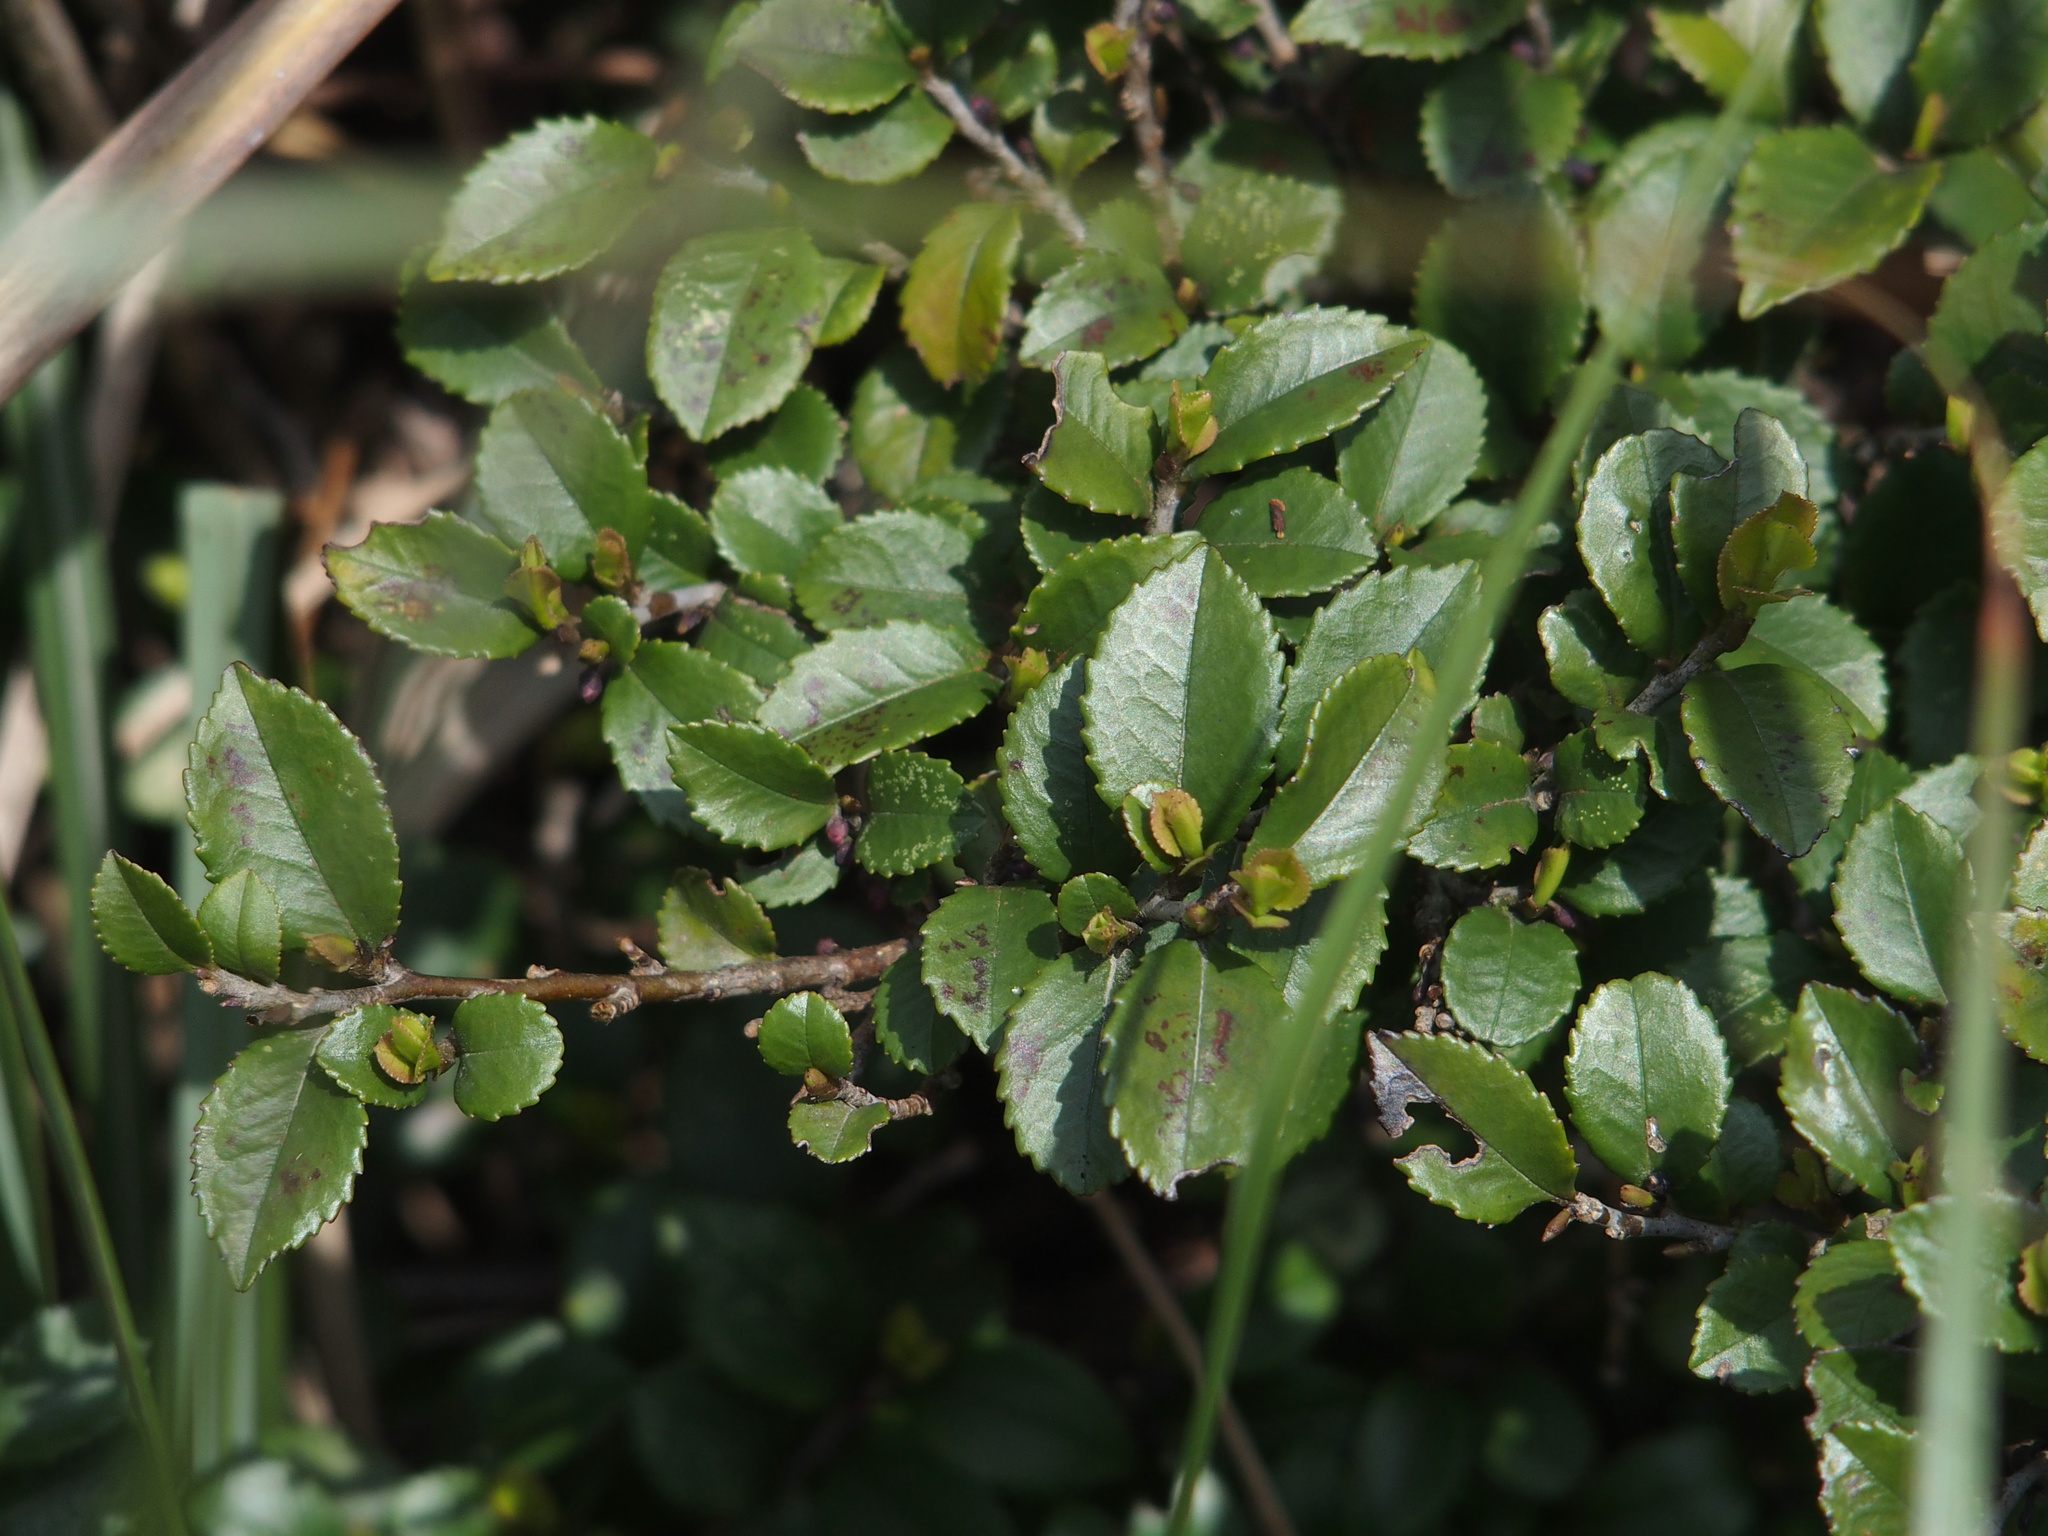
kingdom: Plantae
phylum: Tracheophyta
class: Magnoliopsida
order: Ericales
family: Pentaphylacaceae
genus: Eurya
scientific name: Eurya crenatifolia
